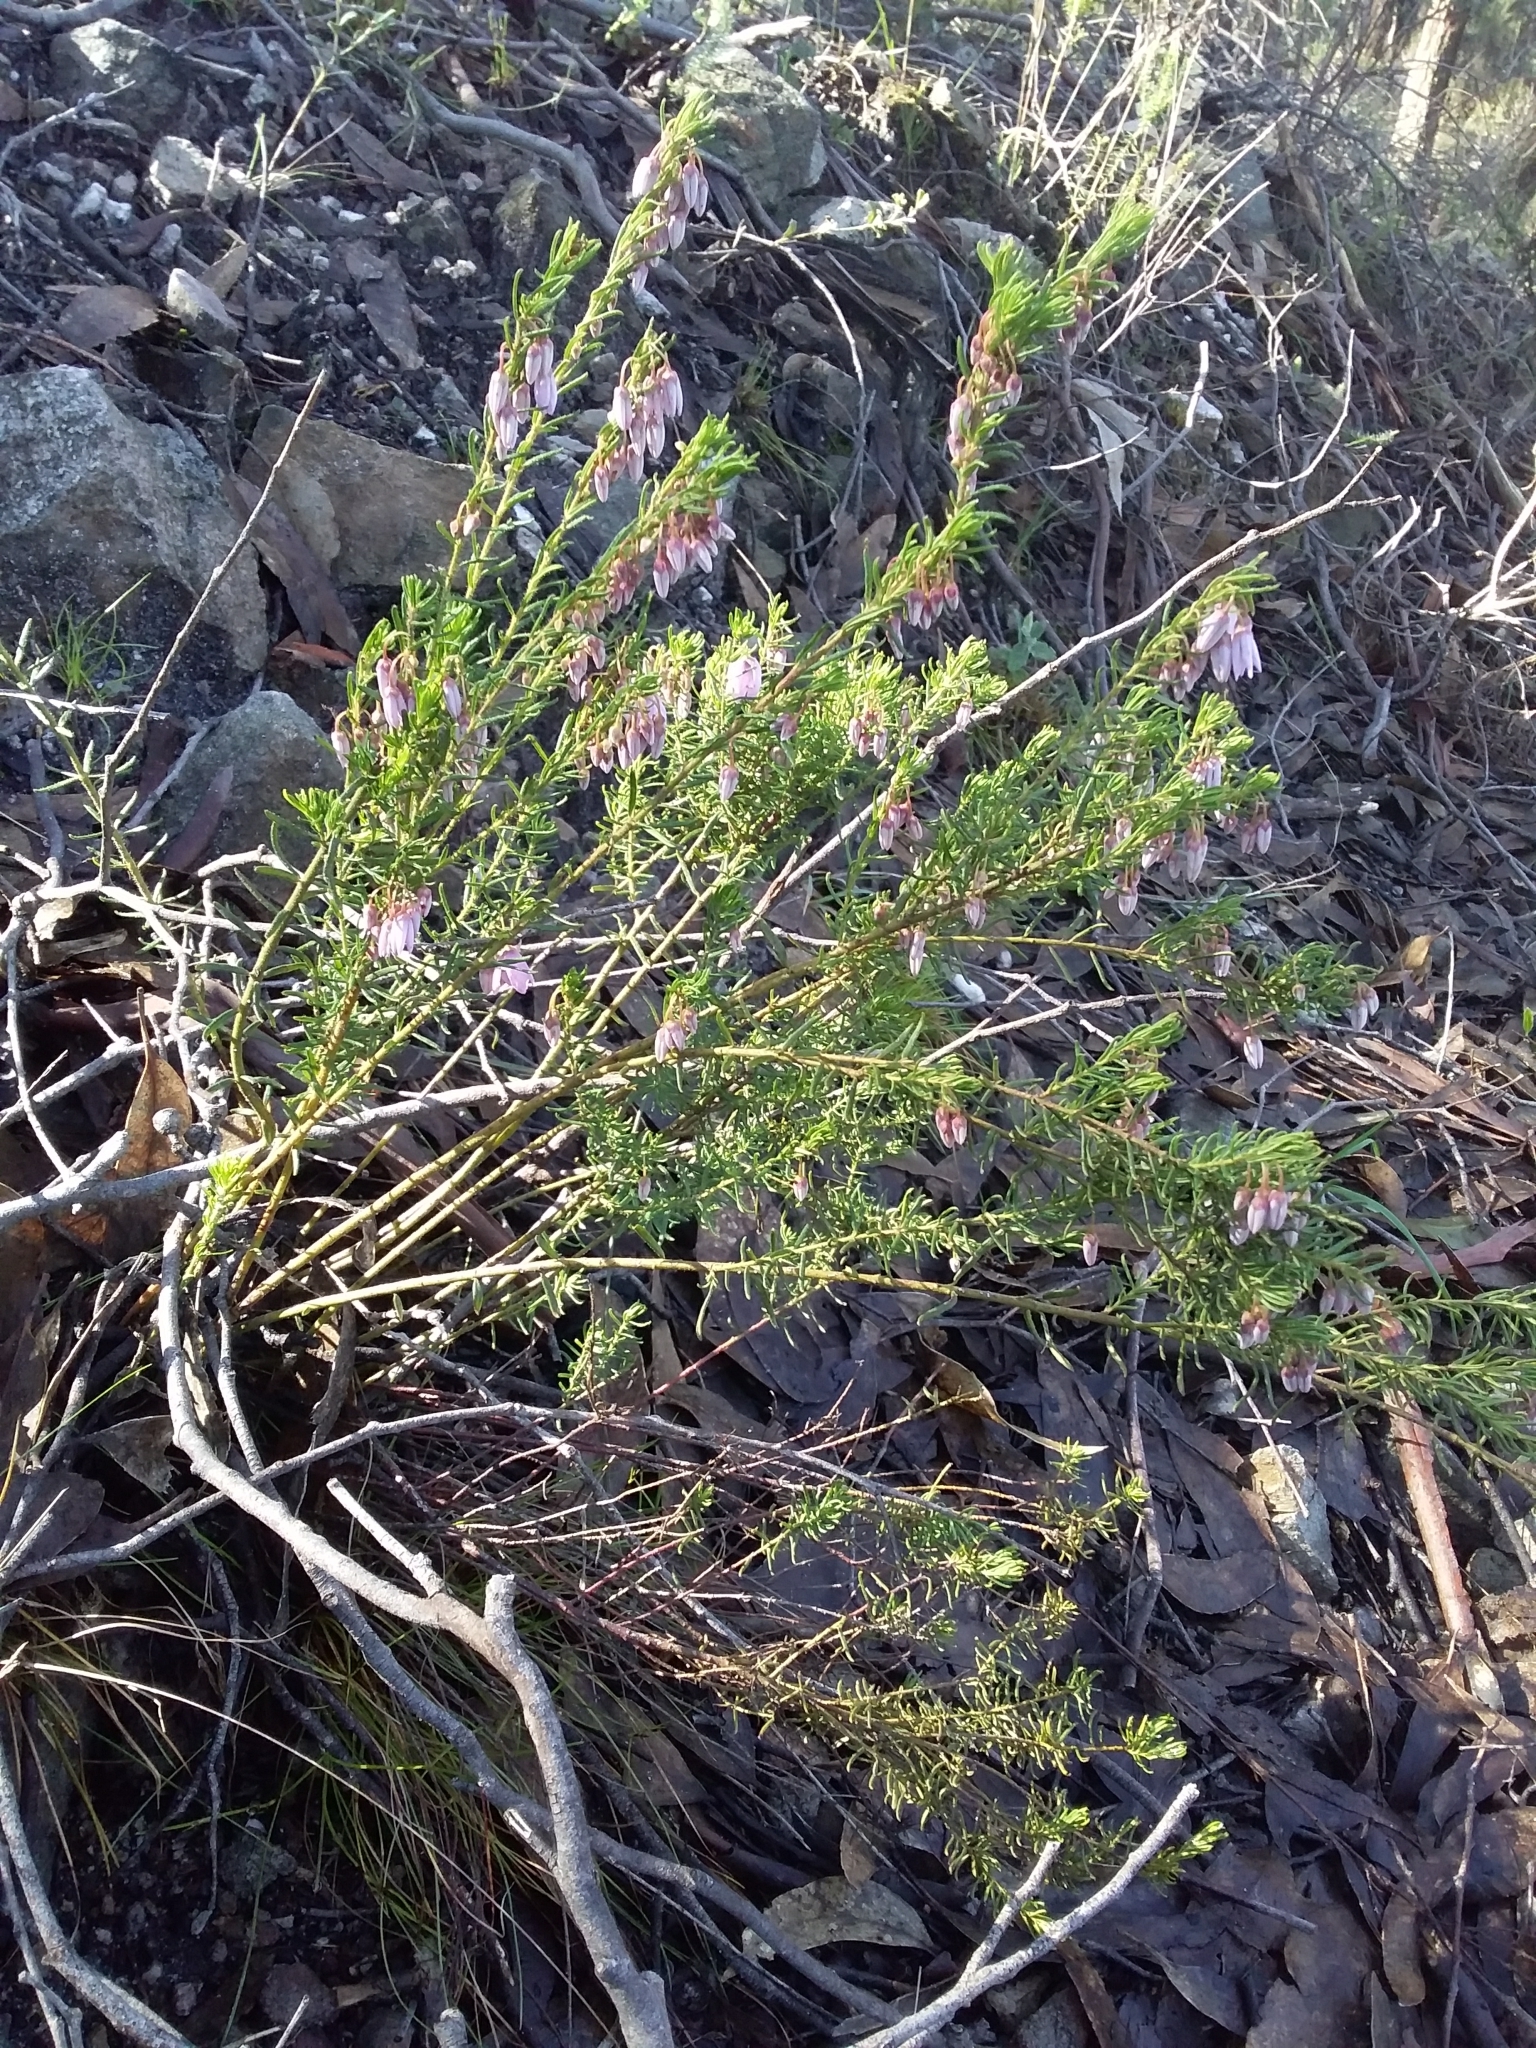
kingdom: Plantae
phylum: Tracheophyta
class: Magnoliopsida
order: Oxalidales
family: Elaeocarpaceae
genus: Tetratheca
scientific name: Tetratheca pilosa
